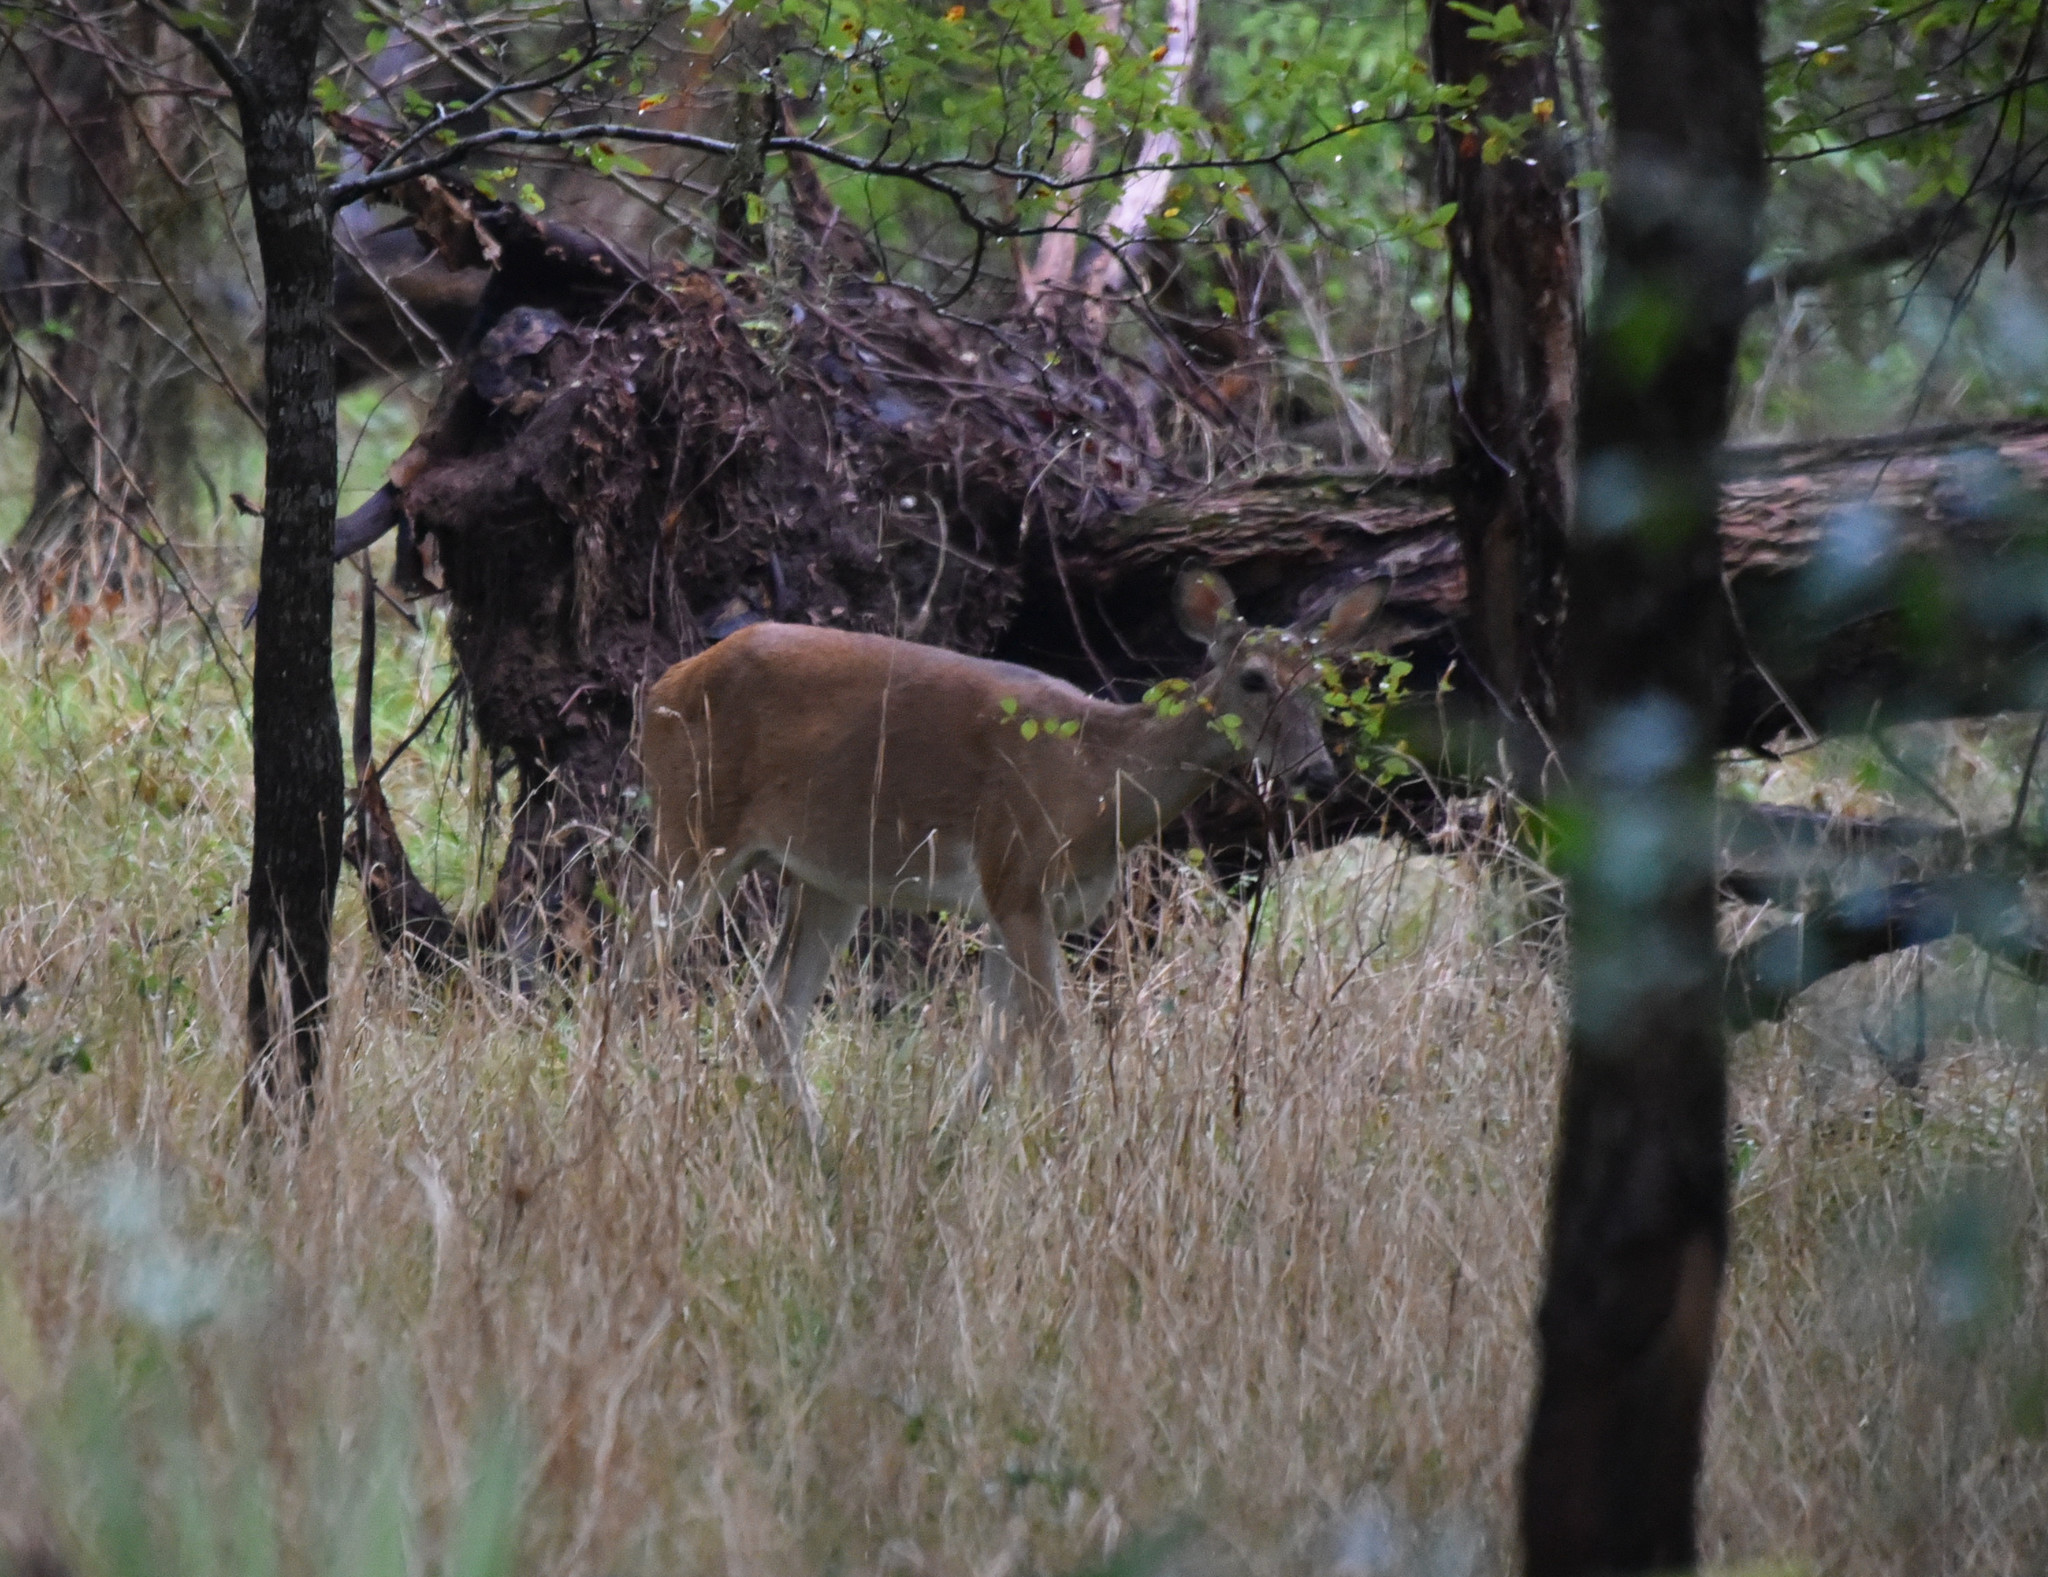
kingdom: Animalia
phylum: Chordata
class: Mammalia
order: Artiodactyla
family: Cervidae
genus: Odocoileus
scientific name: Odocoileus virginianus
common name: White-tailed deer
